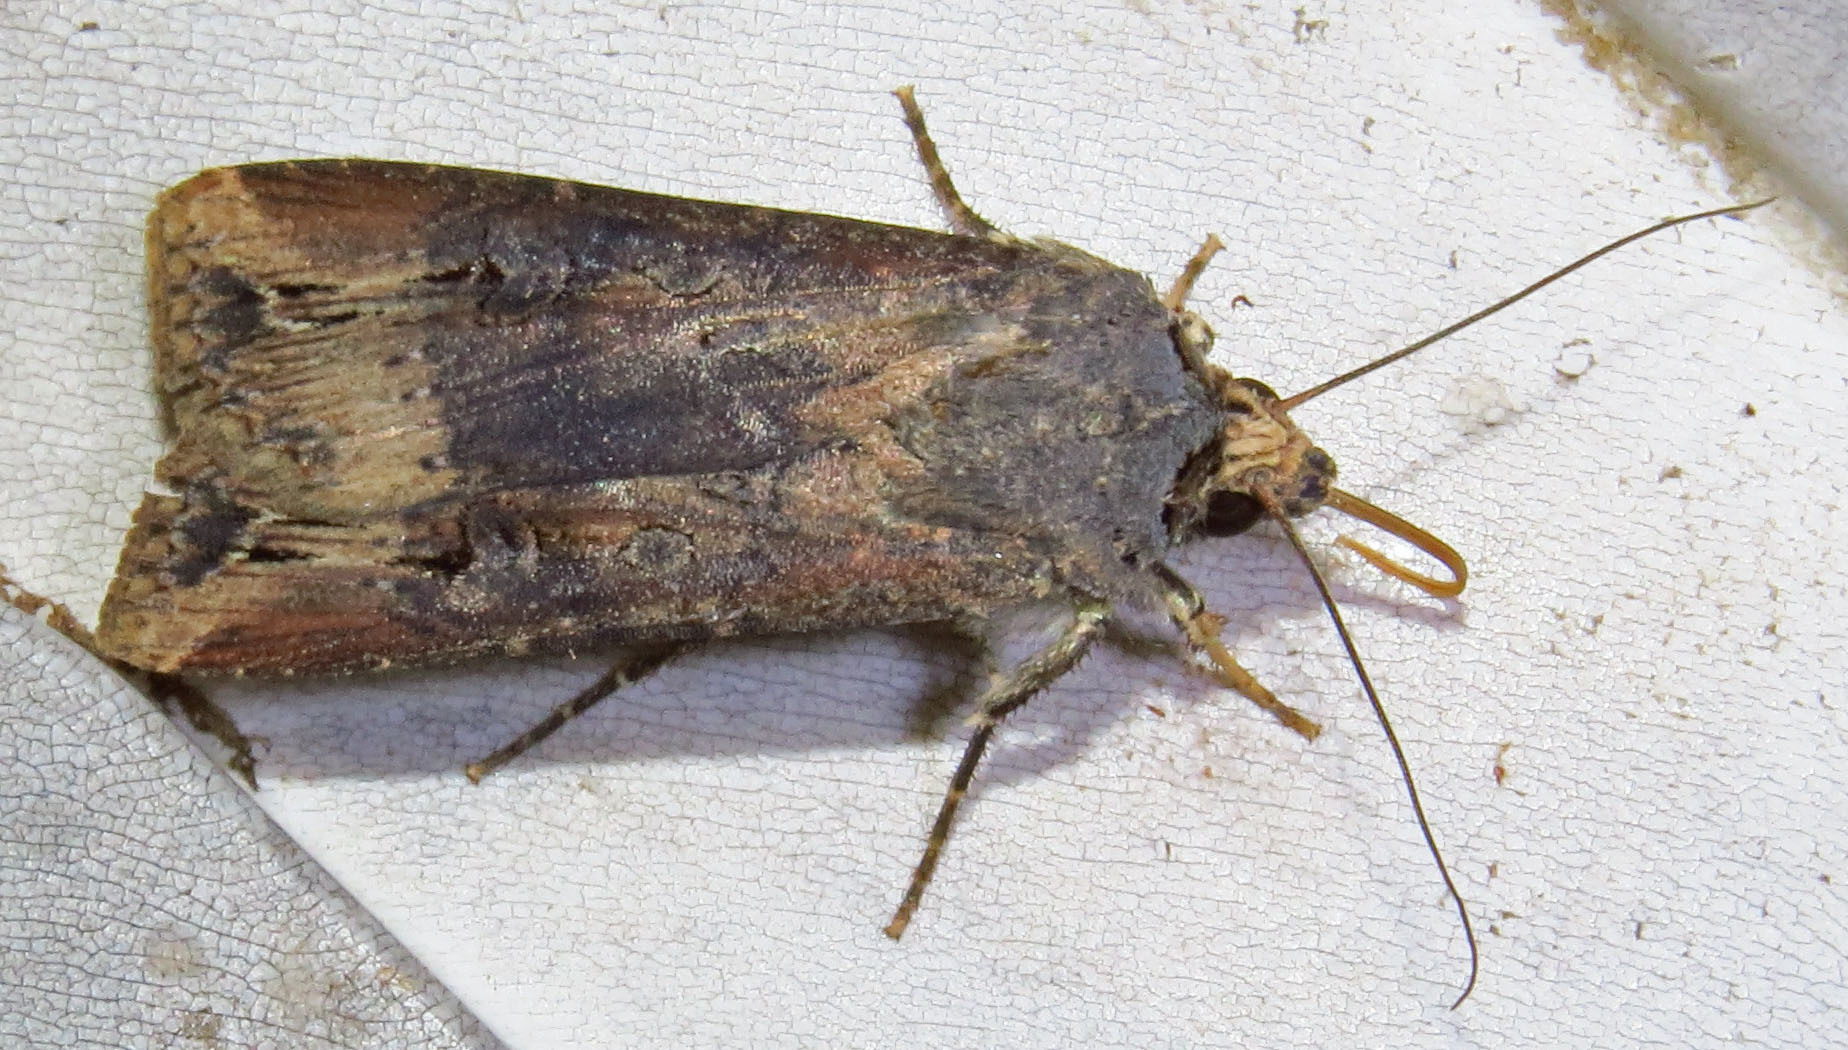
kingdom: Animalia
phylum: Arthropoda
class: Insecta
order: Lepidoptera
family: Noctuidae
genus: Agrotis
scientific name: Agrotis ipsilon
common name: Dark sword-grass
